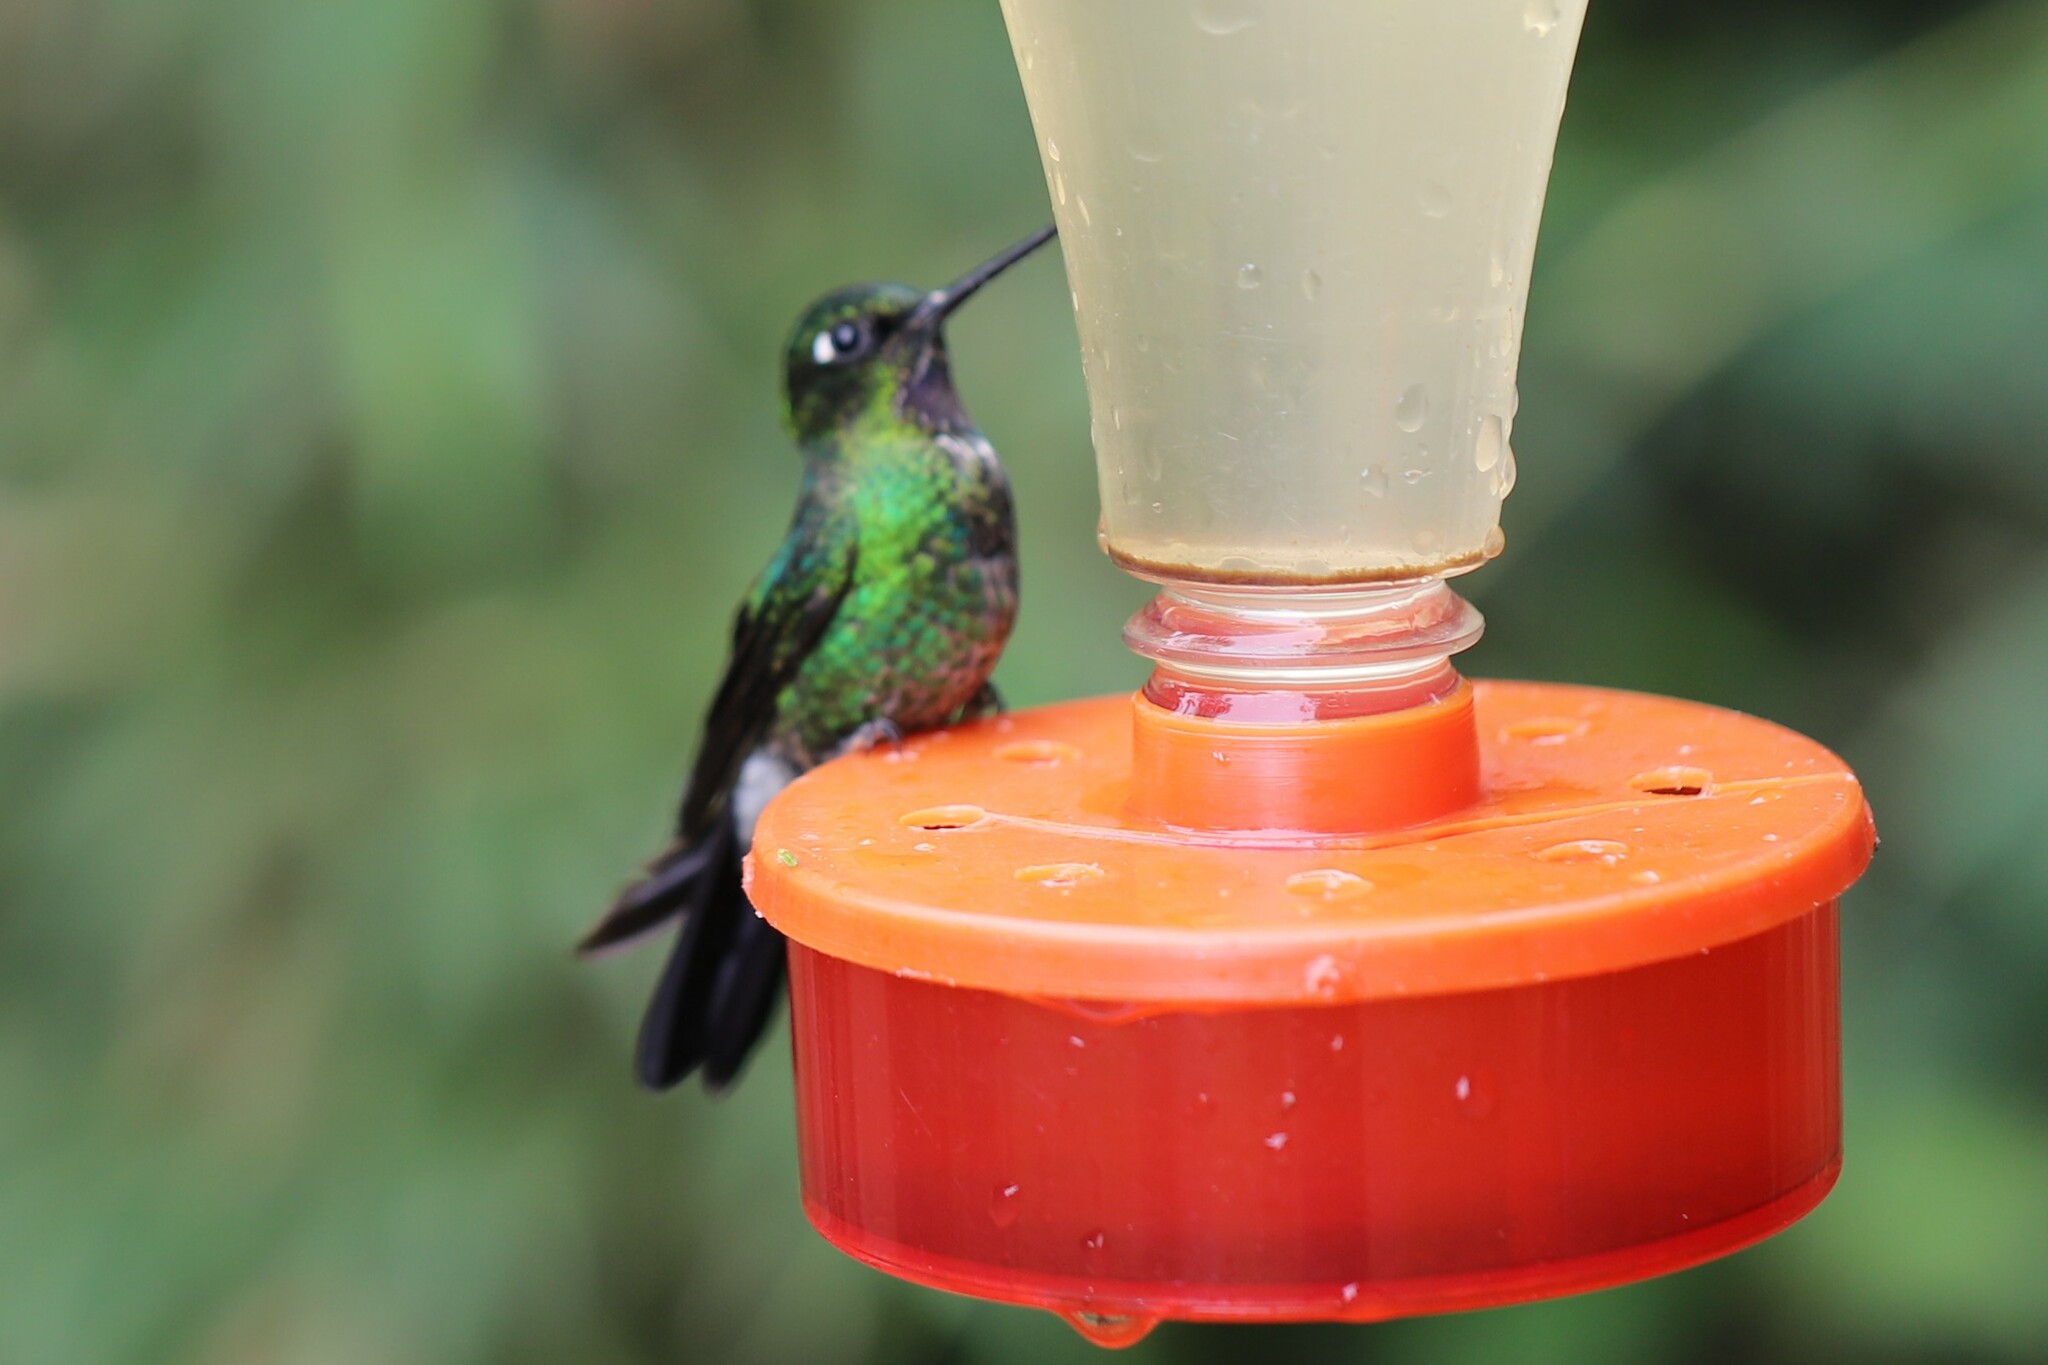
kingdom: Animalia
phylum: Chordata
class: Aves
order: Apodiformes
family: Trochilidae
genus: Heliangelus
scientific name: Heliangelus exortis
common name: Tourmaline sunangel
